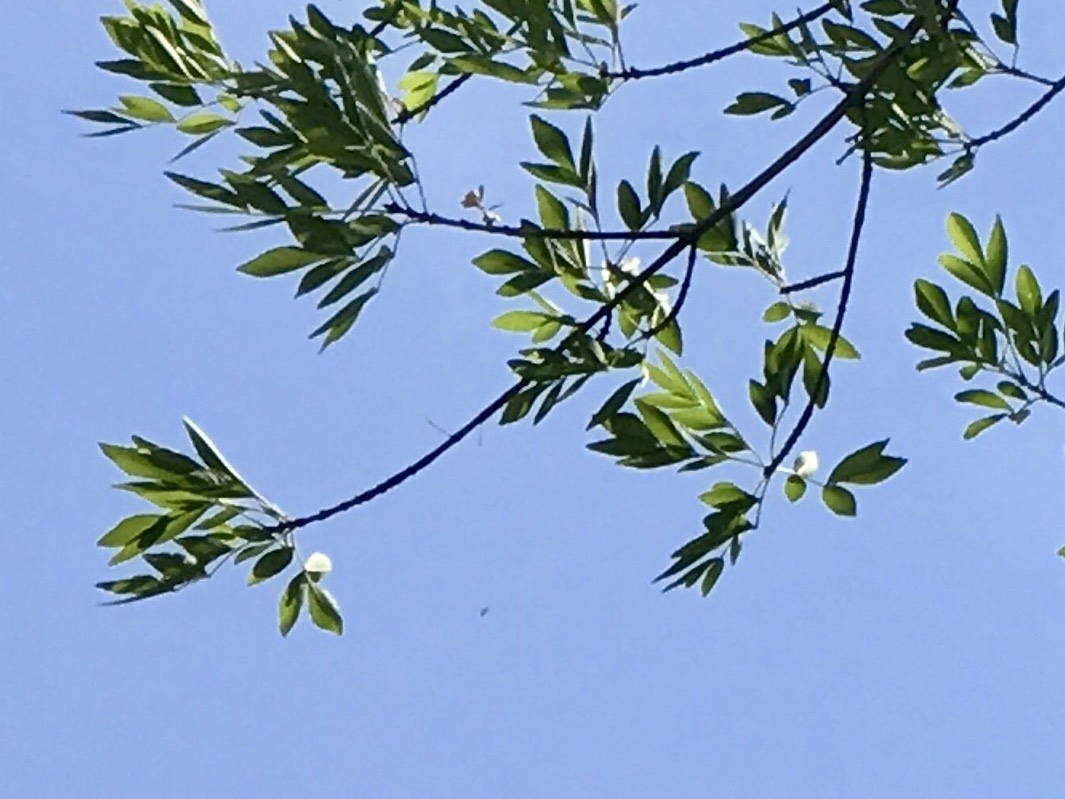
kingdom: Plantae
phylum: Tracheophyta
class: Magnoliopsida
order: Lamiales
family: Oleaceae
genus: Fraxinus
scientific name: Fraxinus velutina
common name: Arizon ash
